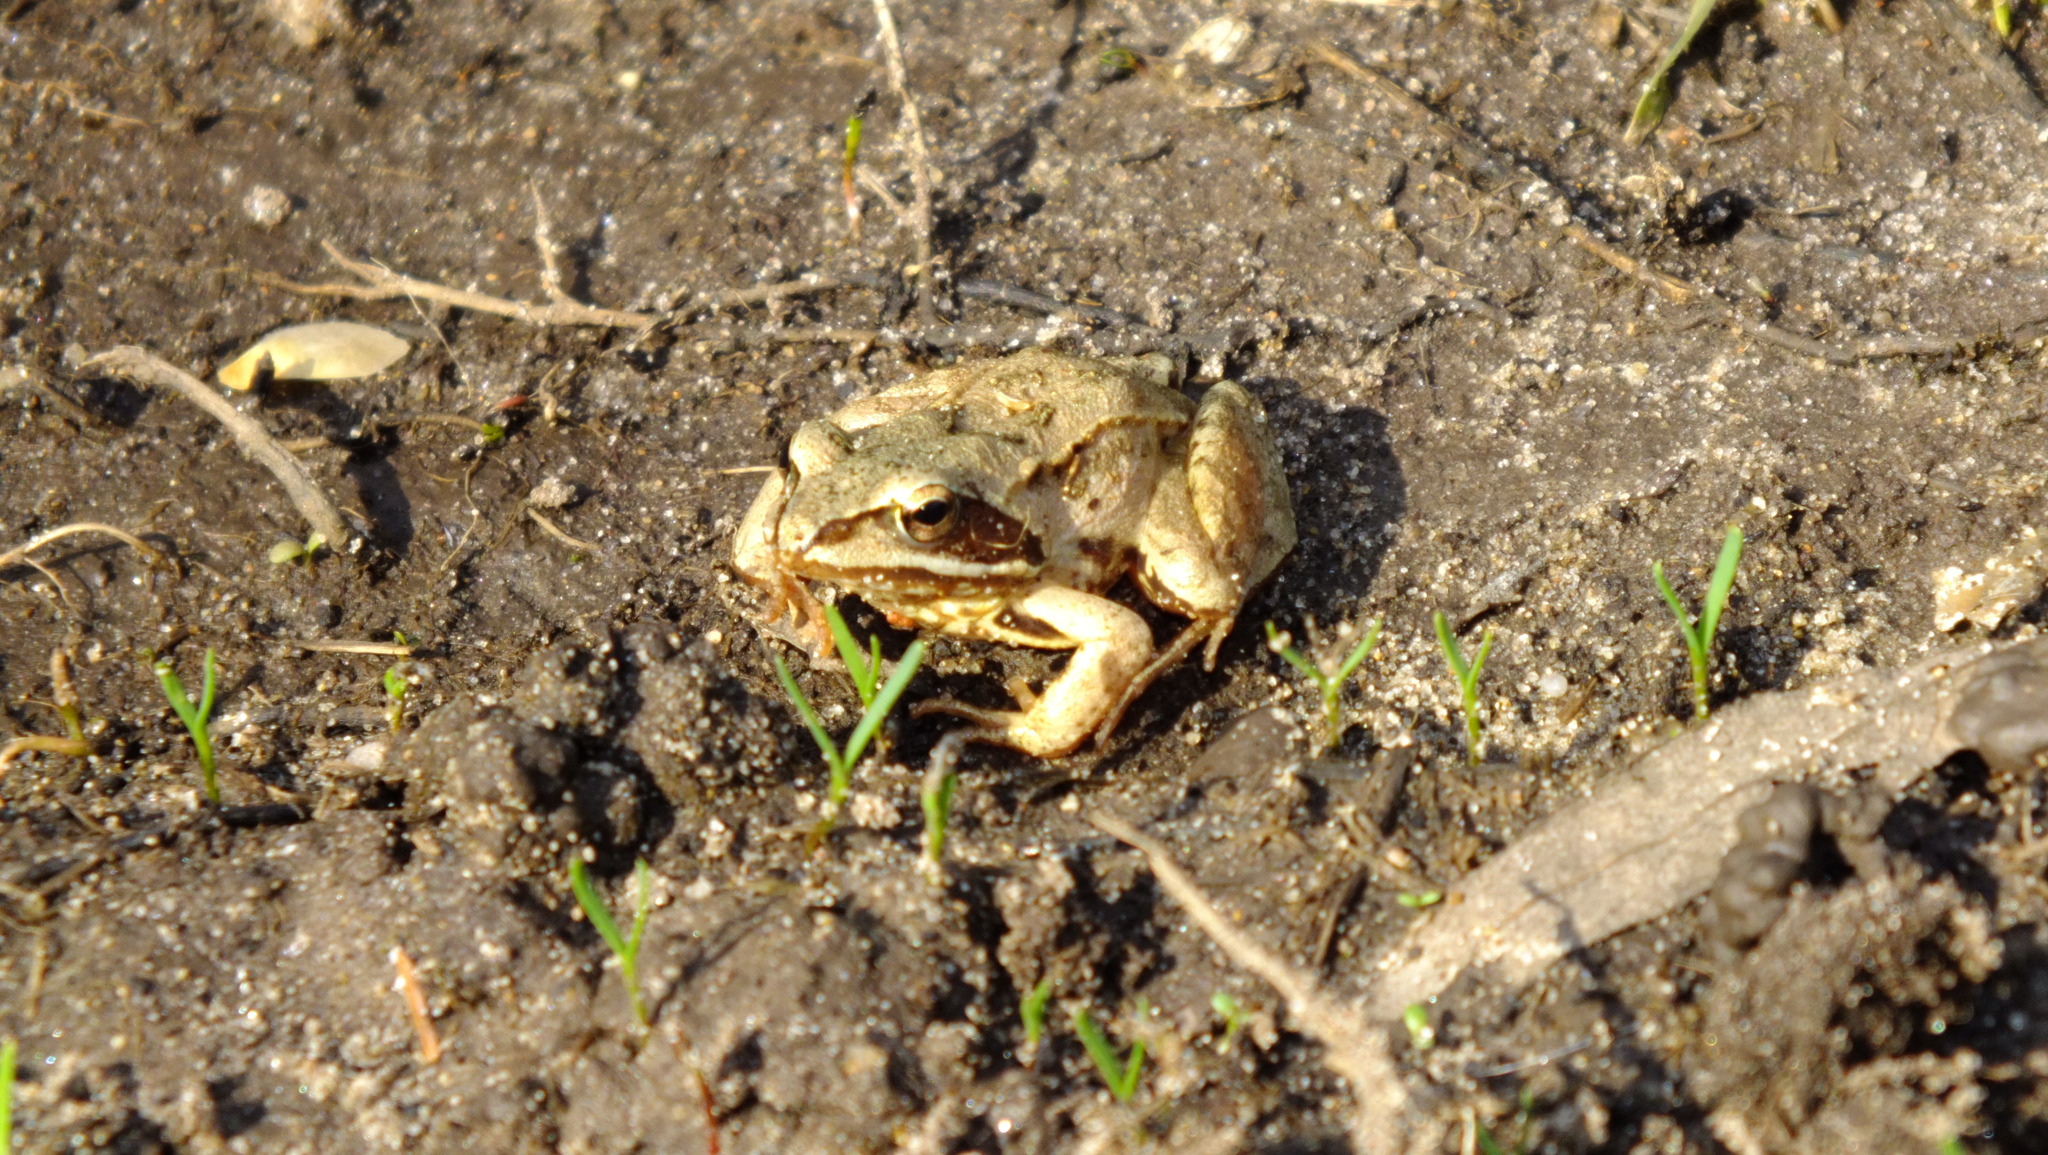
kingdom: Animalia
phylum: Chordata
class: Amphibia
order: Anura
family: Ranidae
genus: Rana
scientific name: Rana arvalis
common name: Moor frog
